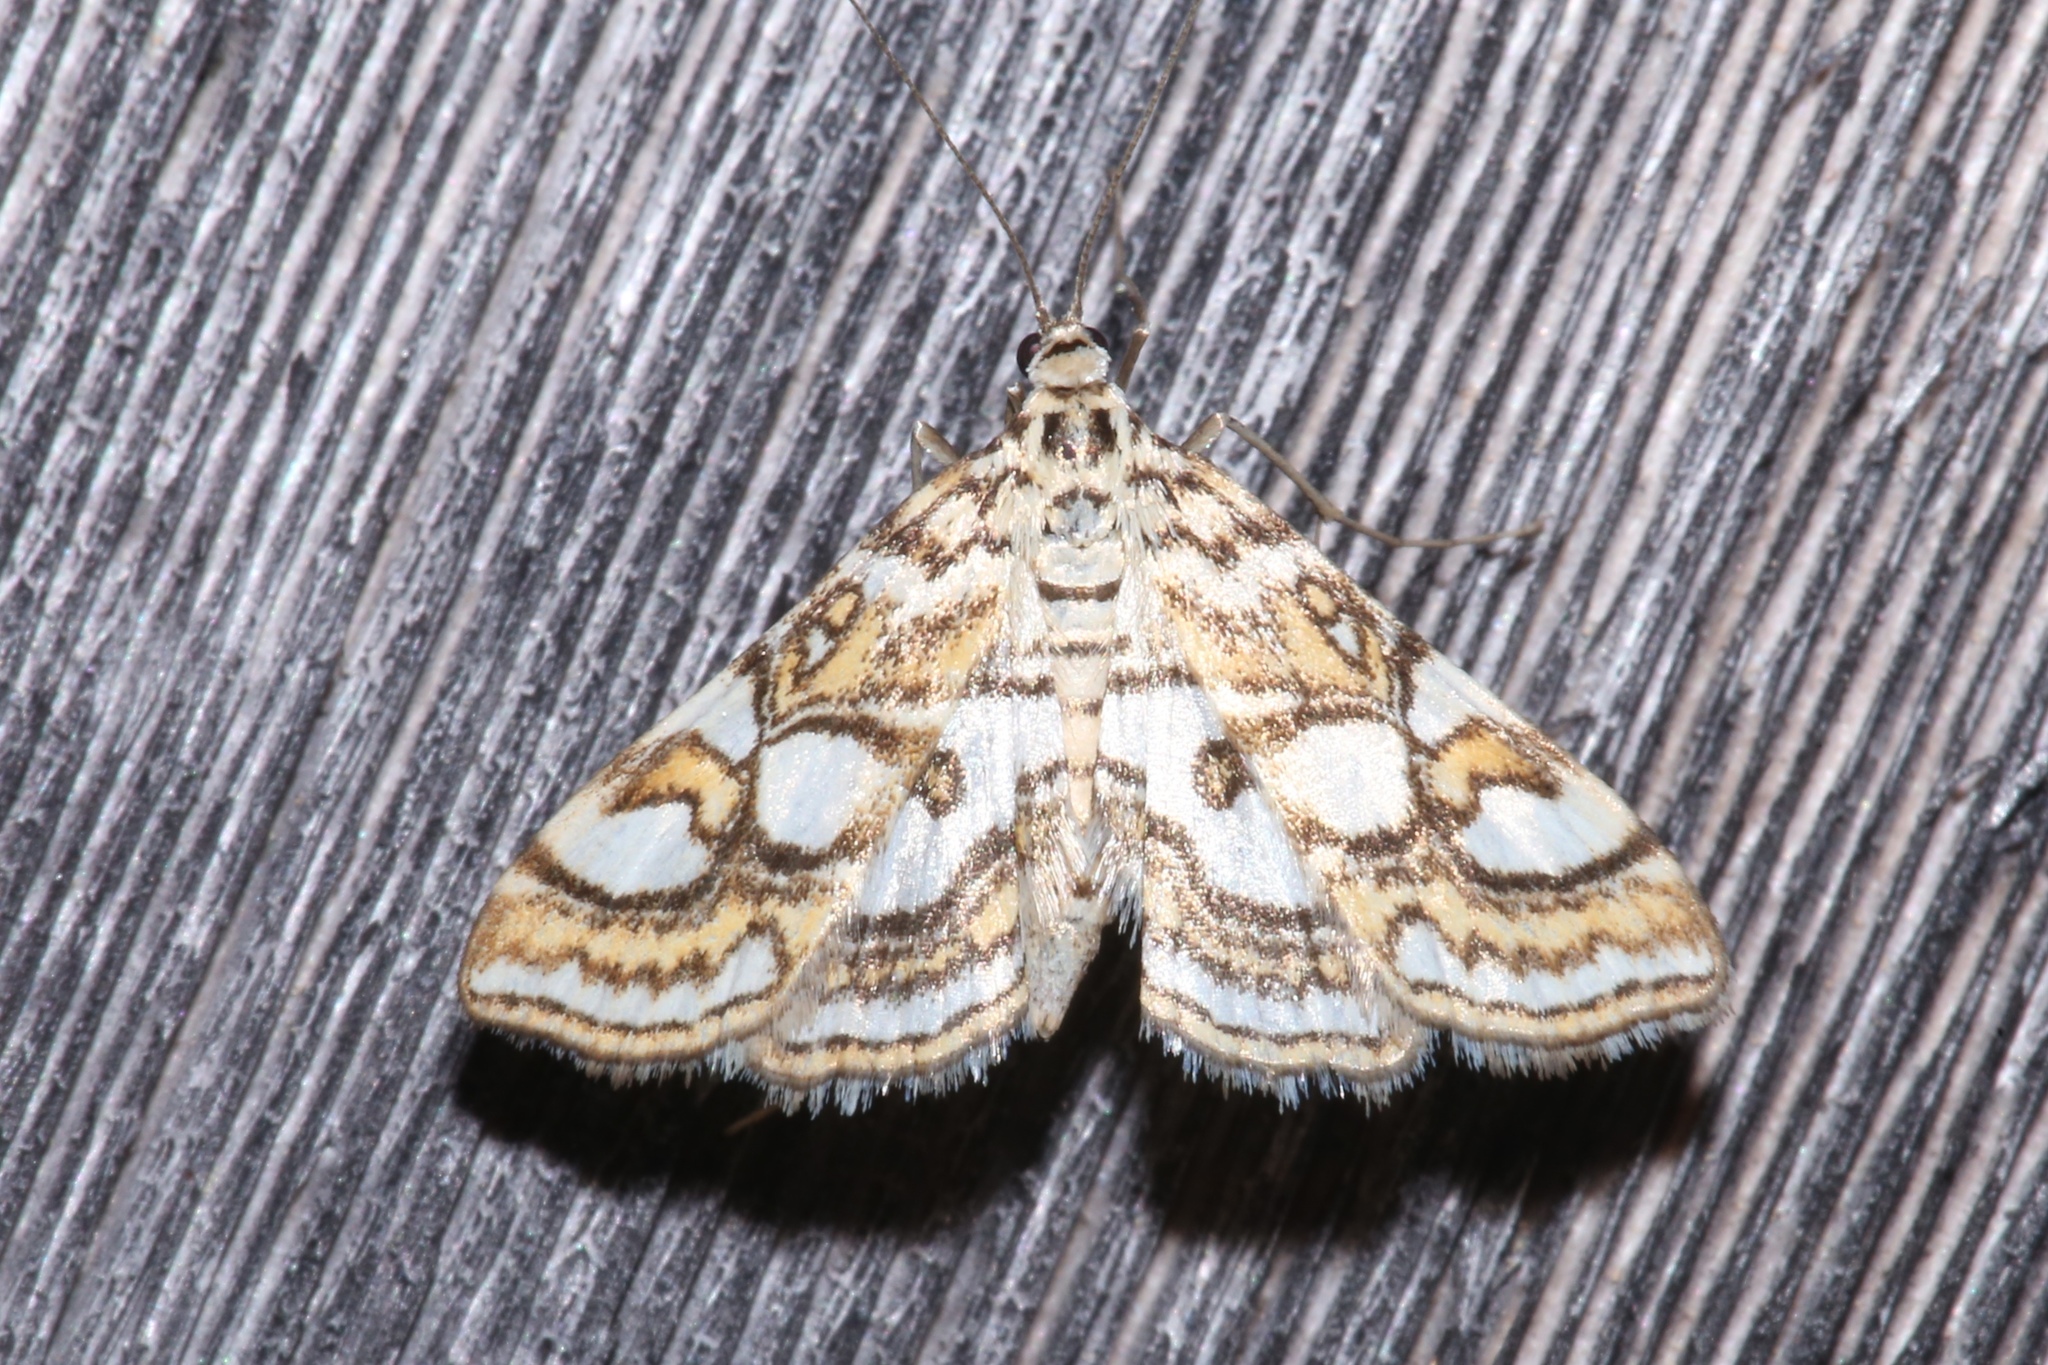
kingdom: Animalia
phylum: Arthropoda
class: Insecta
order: Lepidoptera
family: Crambidae
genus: Elophila
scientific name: Elophila ekthlipsis
